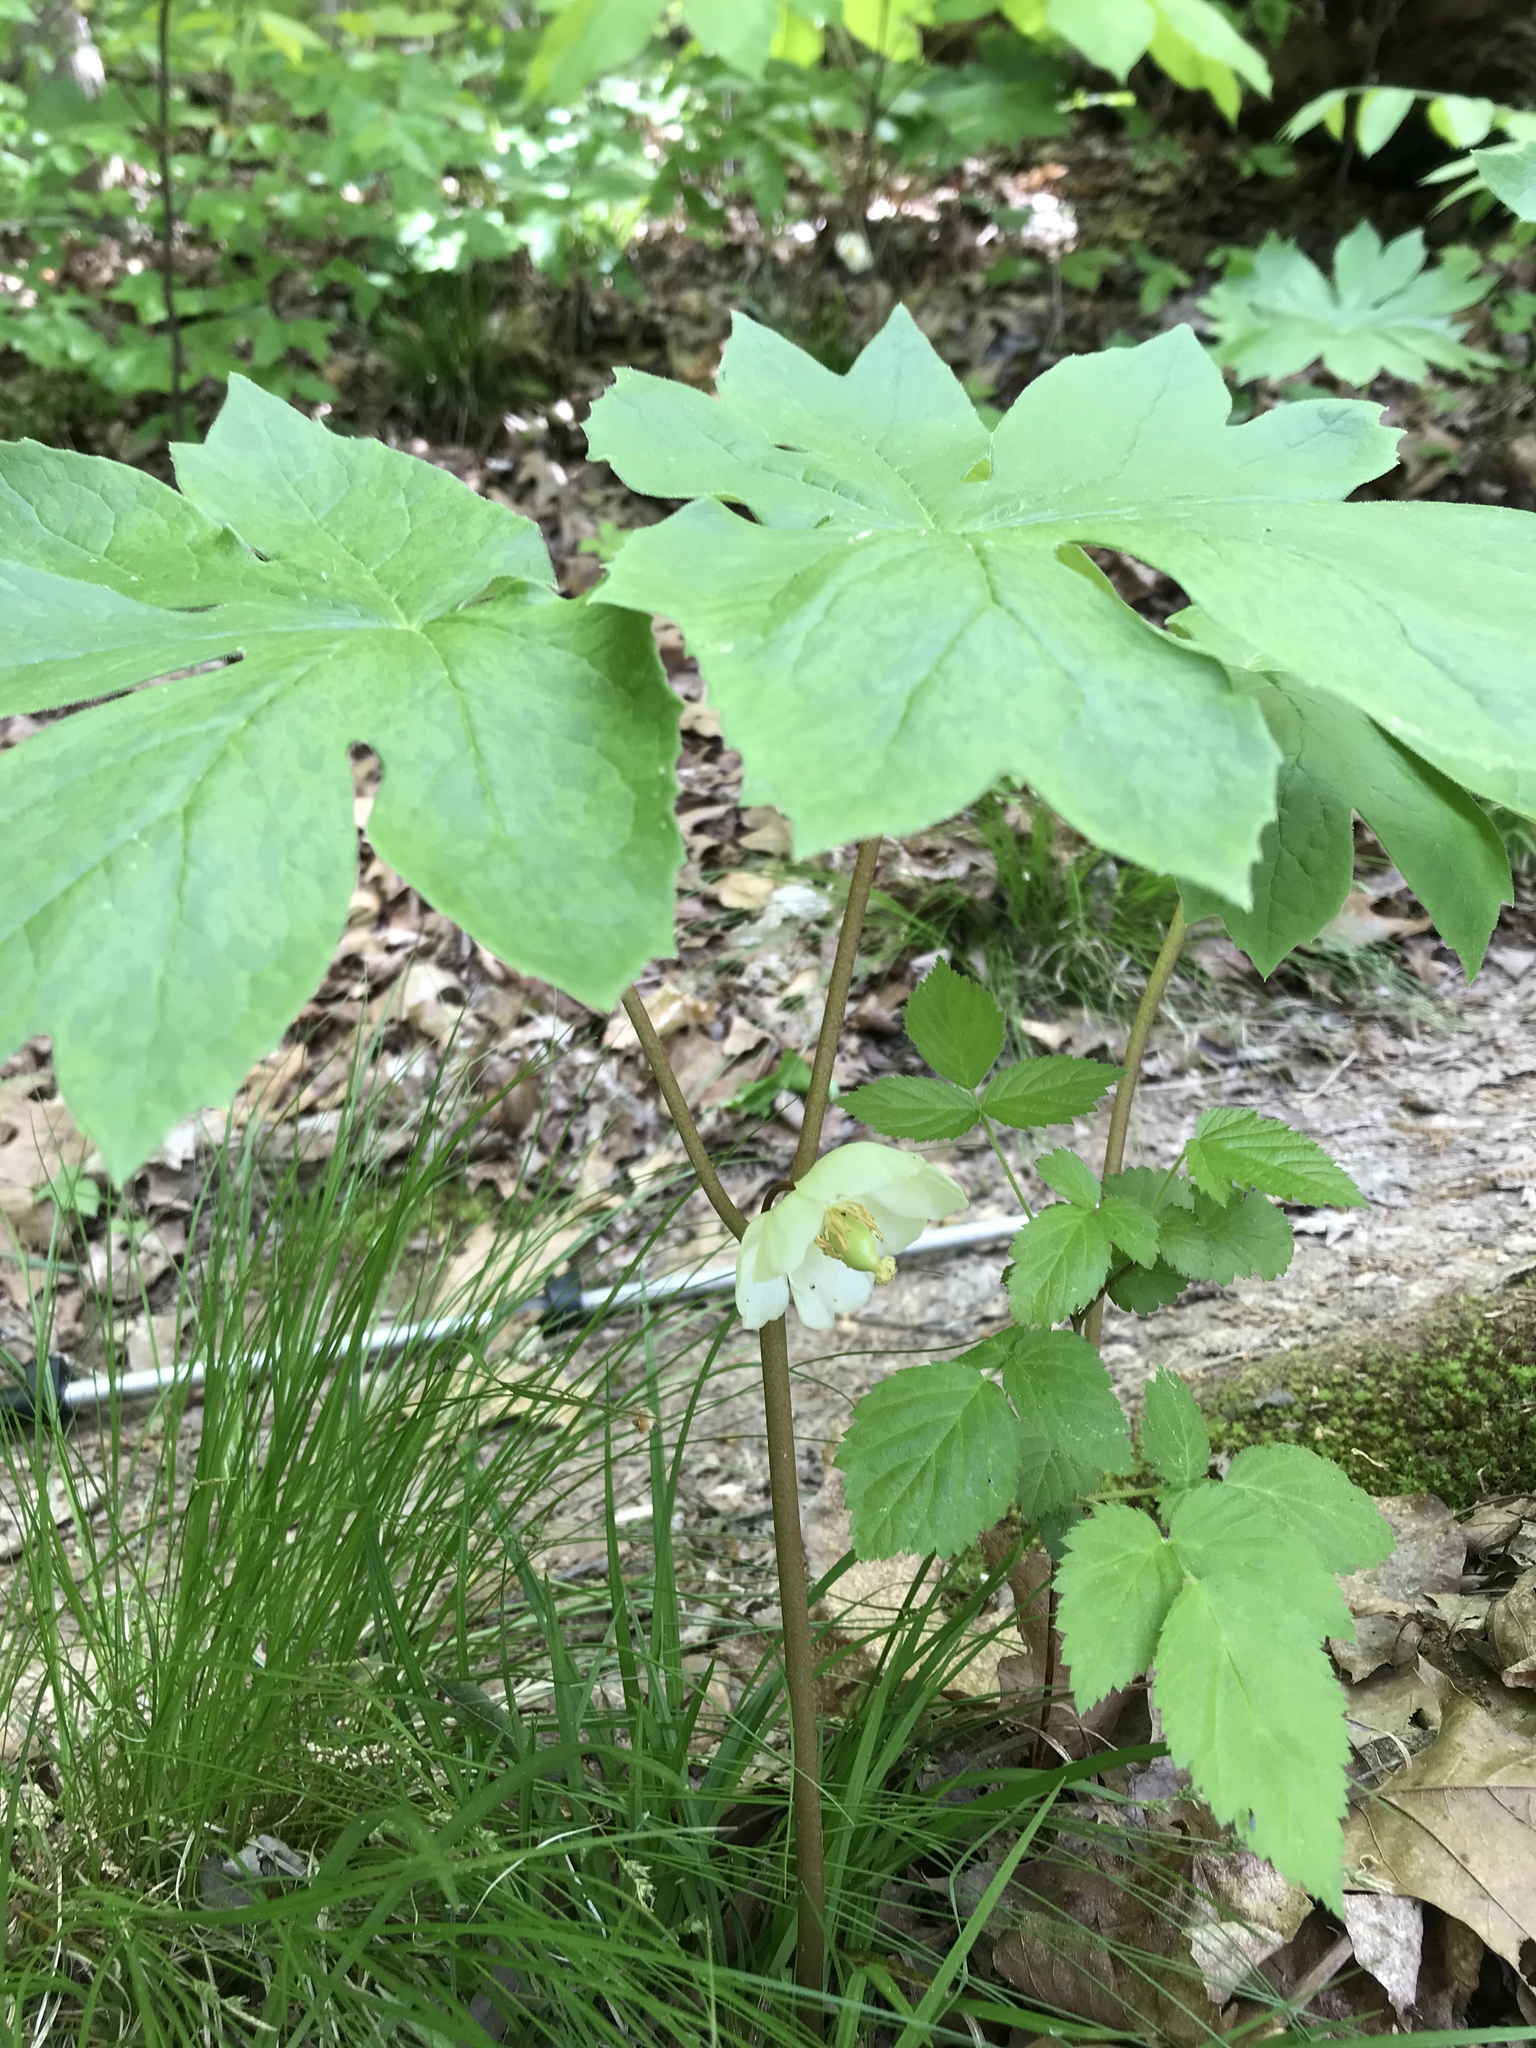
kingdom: Plantae
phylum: Tracheophyta
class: Magnoliopsida
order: Ranunculales
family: Berberidaceae
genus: Podophyllum
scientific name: Podophyllum peltatum
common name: Wild mandrake
